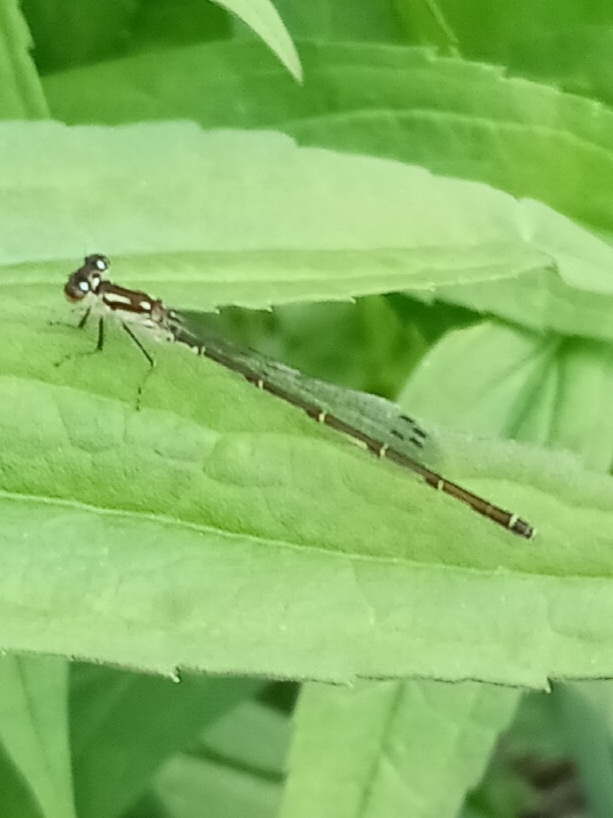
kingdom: Animalia
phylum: Arthropoda
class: Insecta
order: Odonata
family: Coenagrionidae
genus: Ischnura
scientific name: Ischnura posita
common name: Fragile forktail
